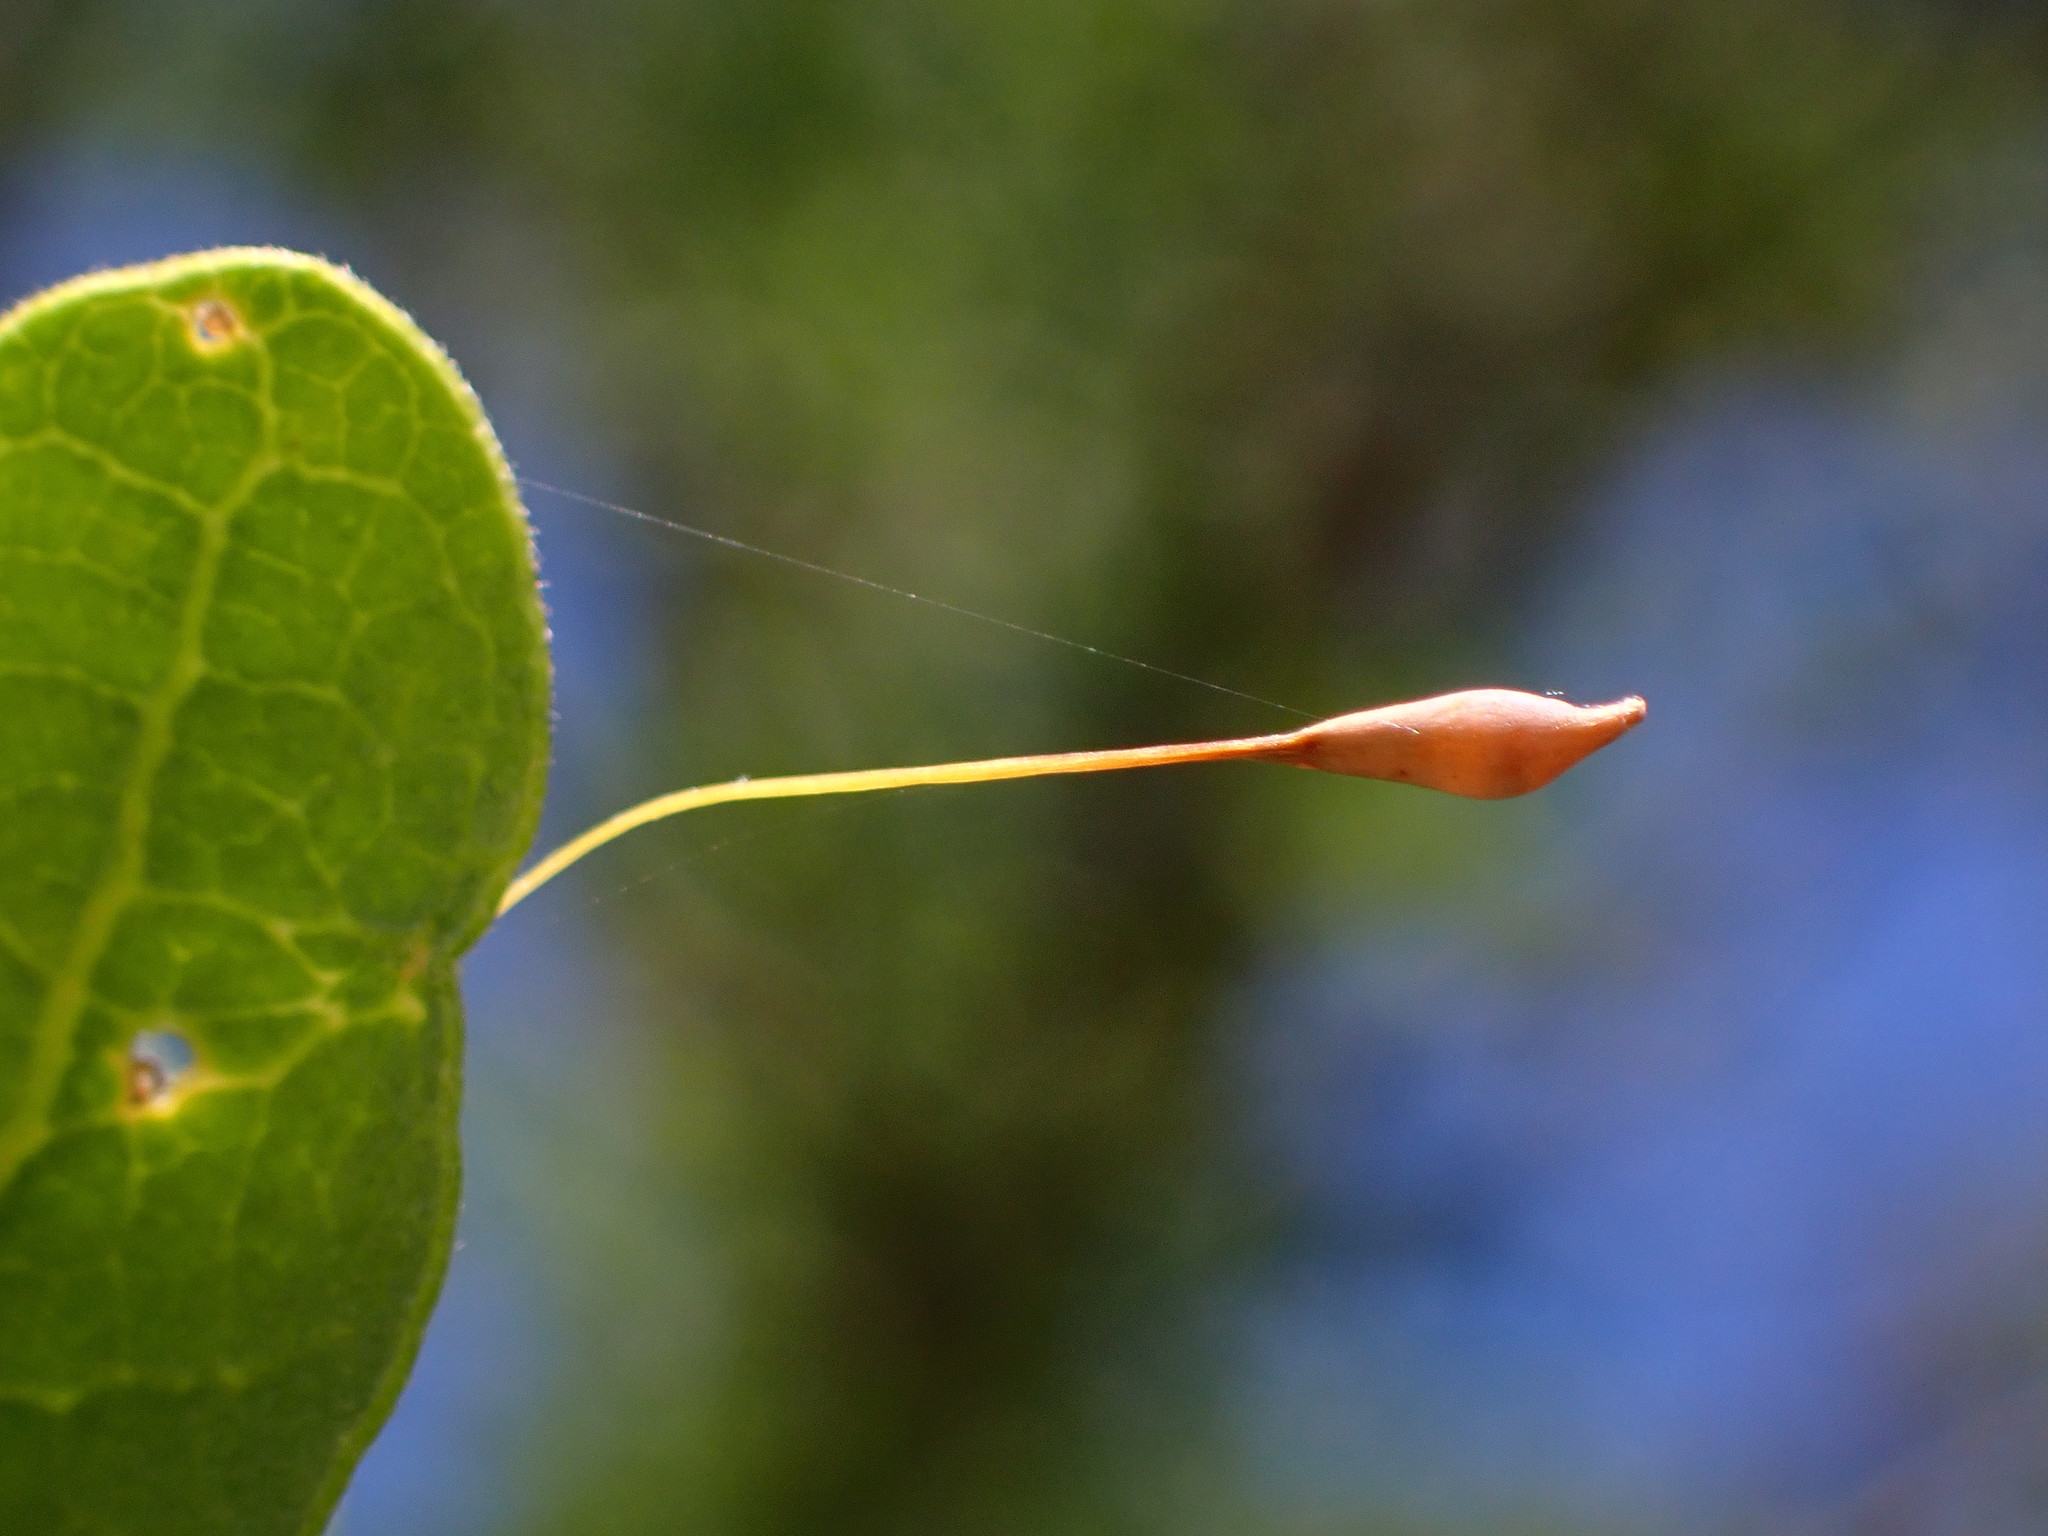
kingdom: Animalia
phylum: Arthropoda
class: Insecta
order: Hymenoptera
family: Cynipidae
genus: Andricus
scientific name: Andricus
